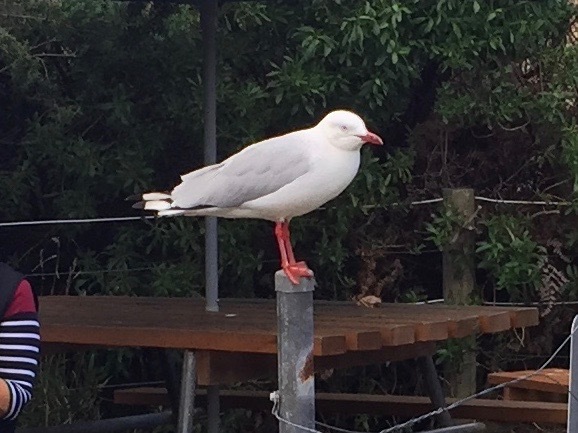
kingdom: Animalia
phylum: Chordata
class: Aves
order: Charadriiformes
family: Laridae
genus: Chroicocephalus
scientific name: Chroicocephalus novaehollandiae
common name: Silver gull
